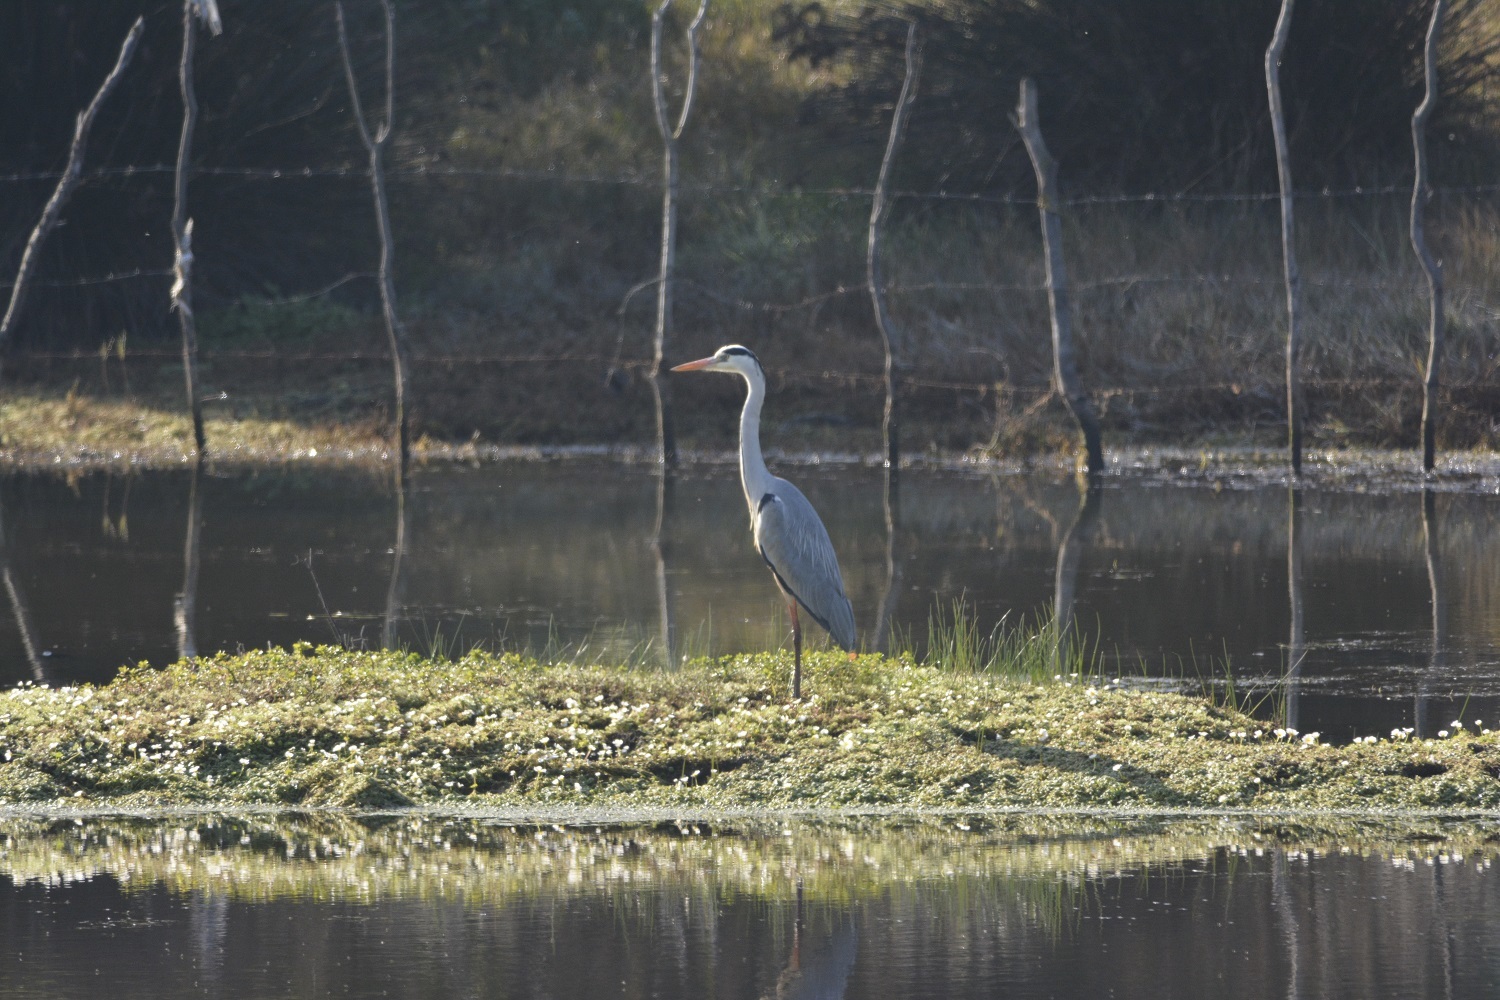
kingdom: Animalia
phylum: Chordata
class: Aves
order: Pelecaniformes
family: Ardeidae
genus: Ardea
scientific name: Ardea cinerea
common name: Grey heron
